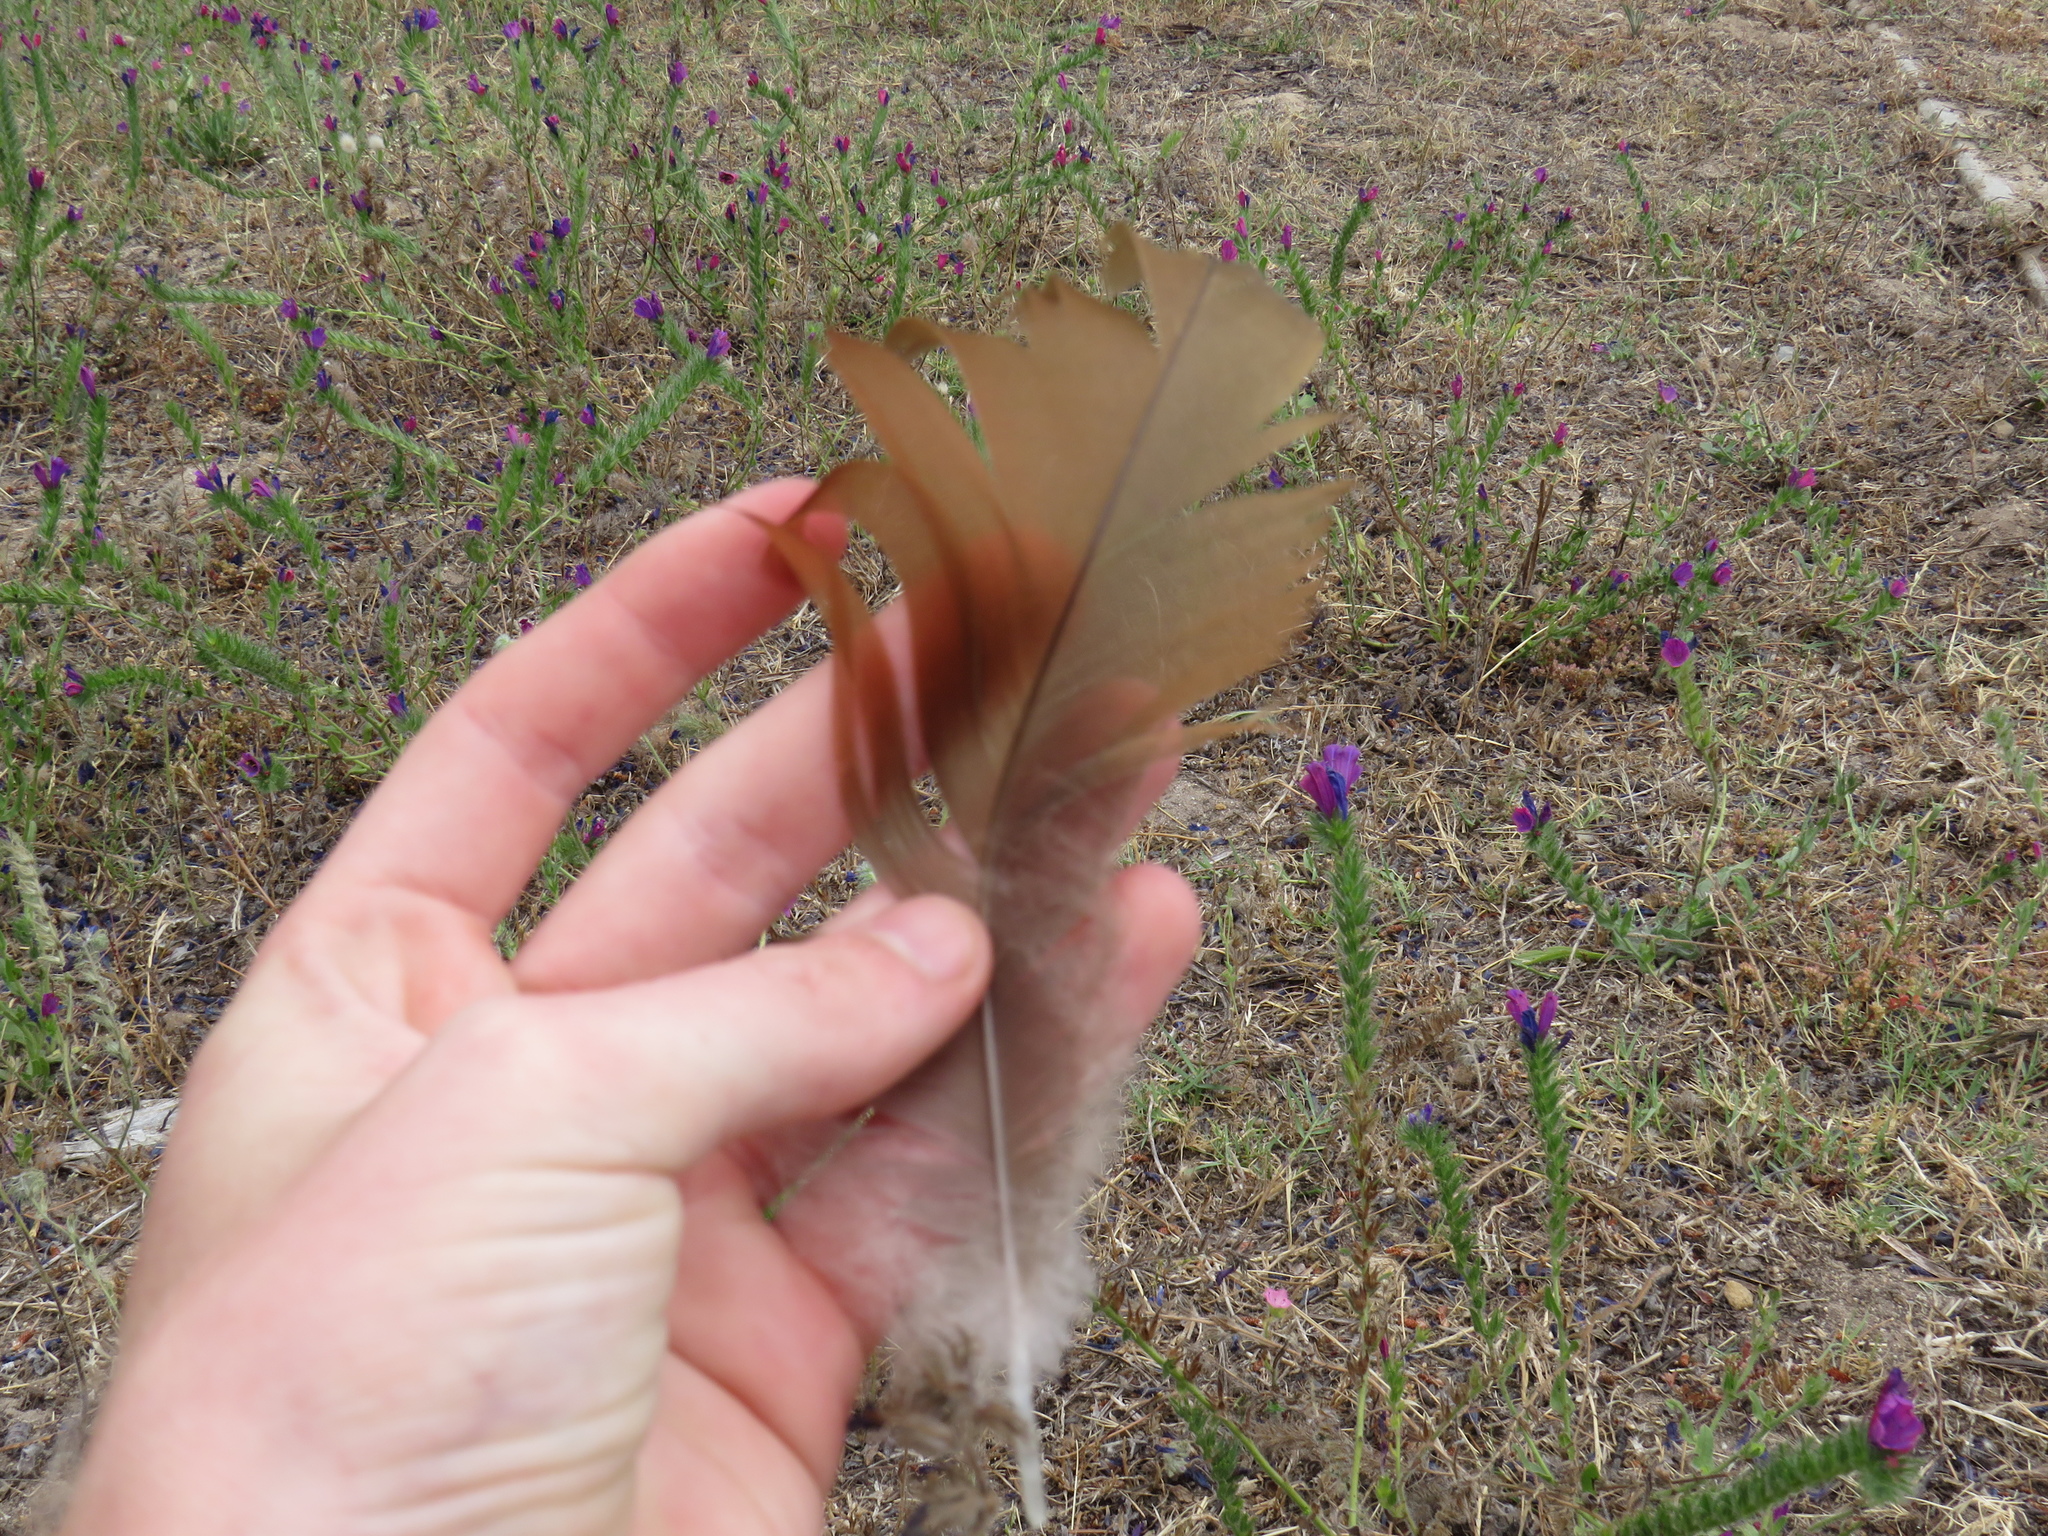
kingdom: Animalia
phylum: Chordata
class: Aves
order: Anseriformes
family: Anatidae
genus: Alopochen
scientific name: Alopochen aegyptiaca
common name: Egyptian goose
